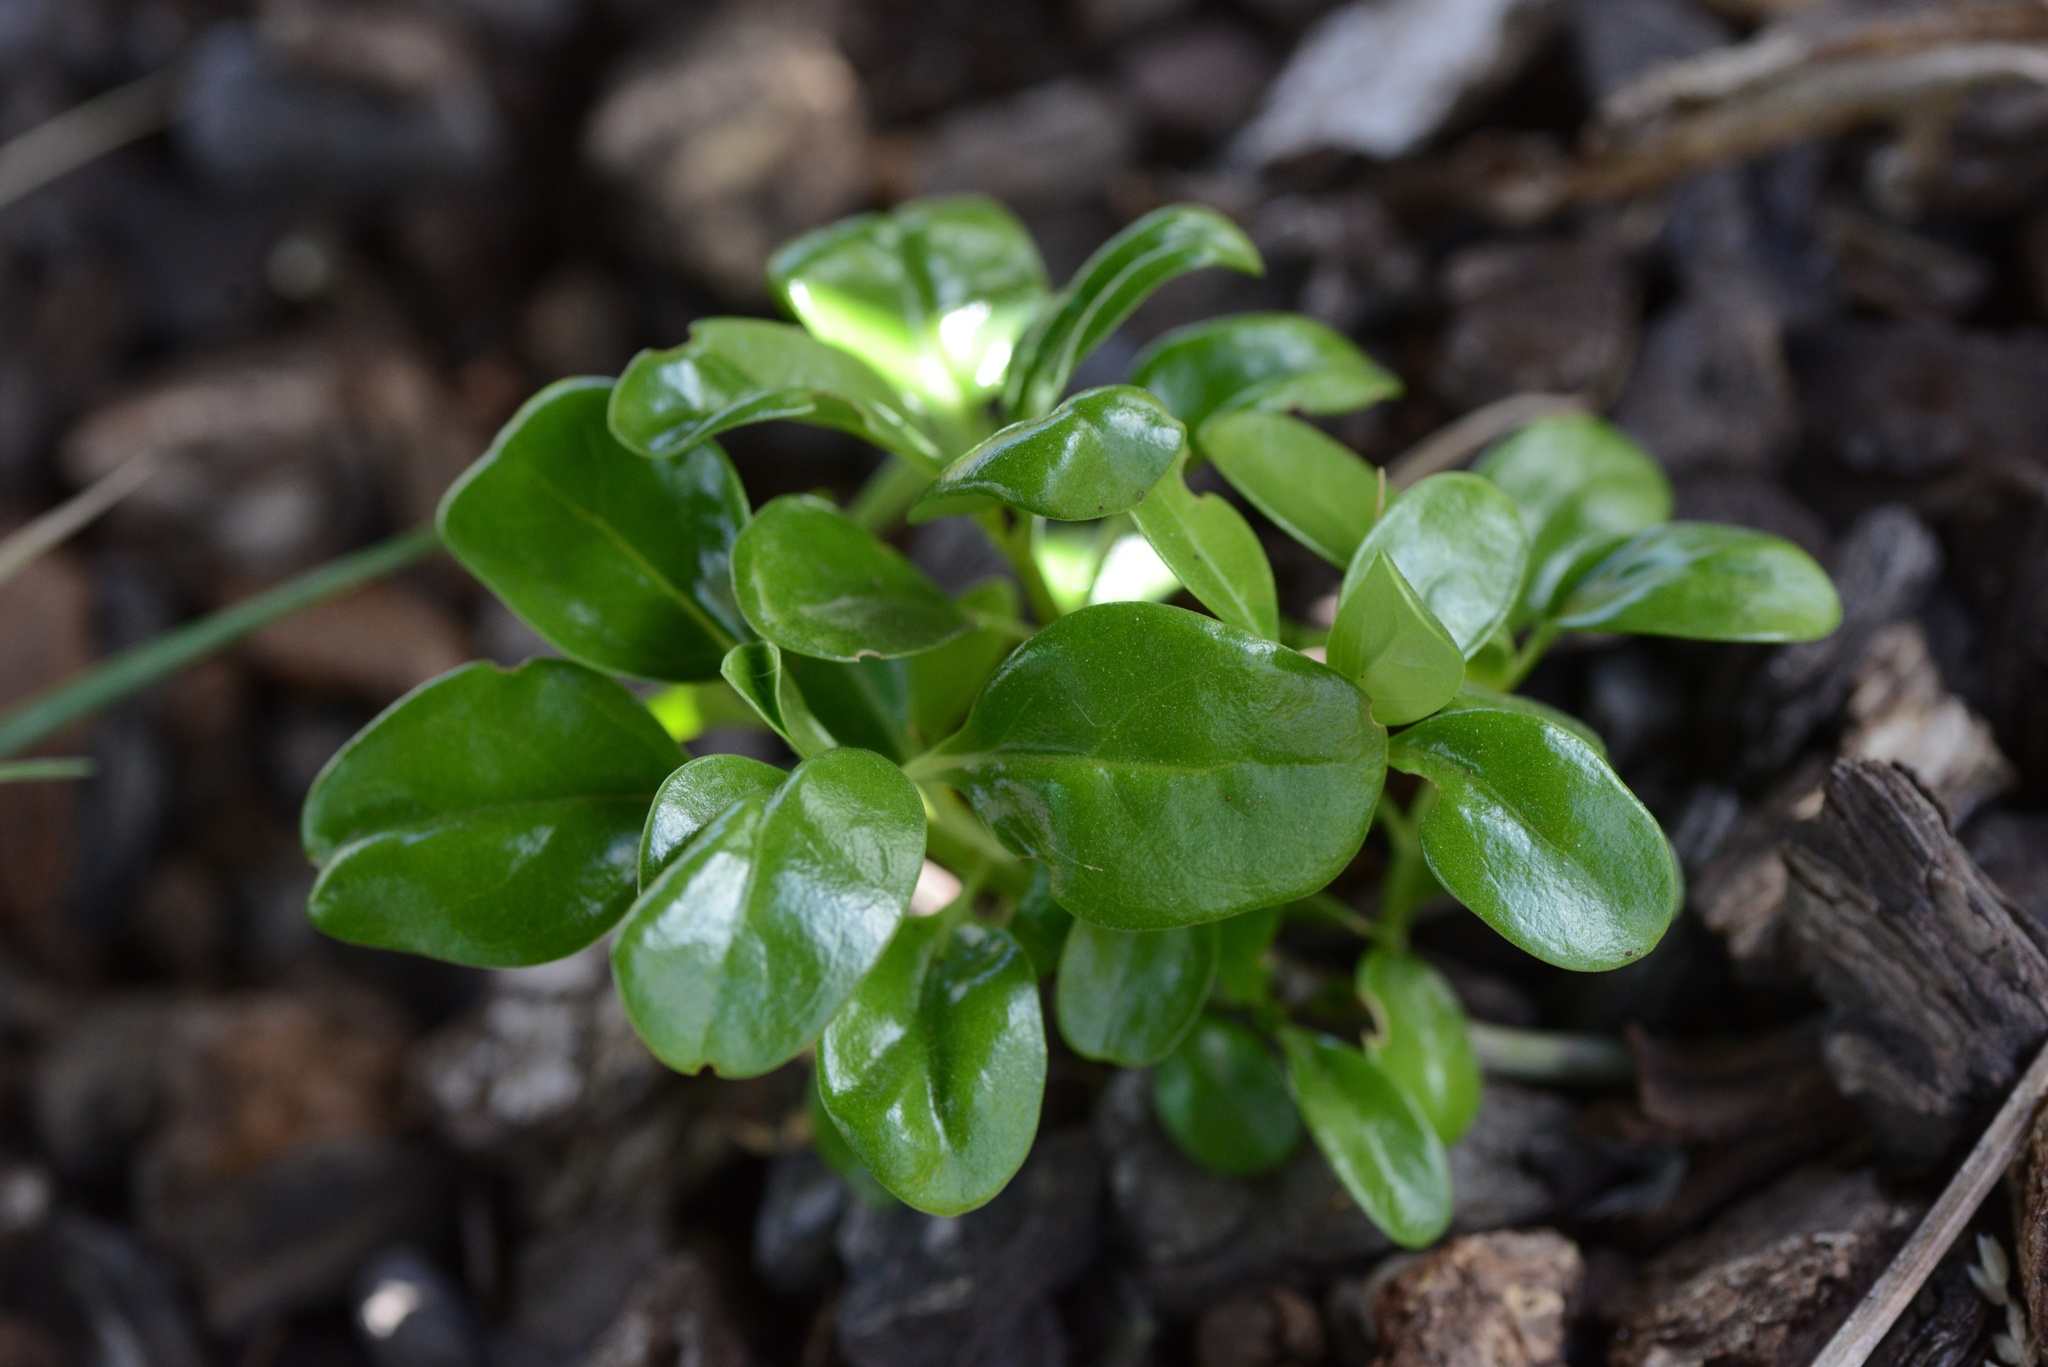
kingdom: Plantae
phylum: Tracheophyta
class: Magnoliopsida
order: Gentianales
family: Rubiaceae
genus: Coprosma
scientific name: Coprosma repens
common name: Tree bedstraw
